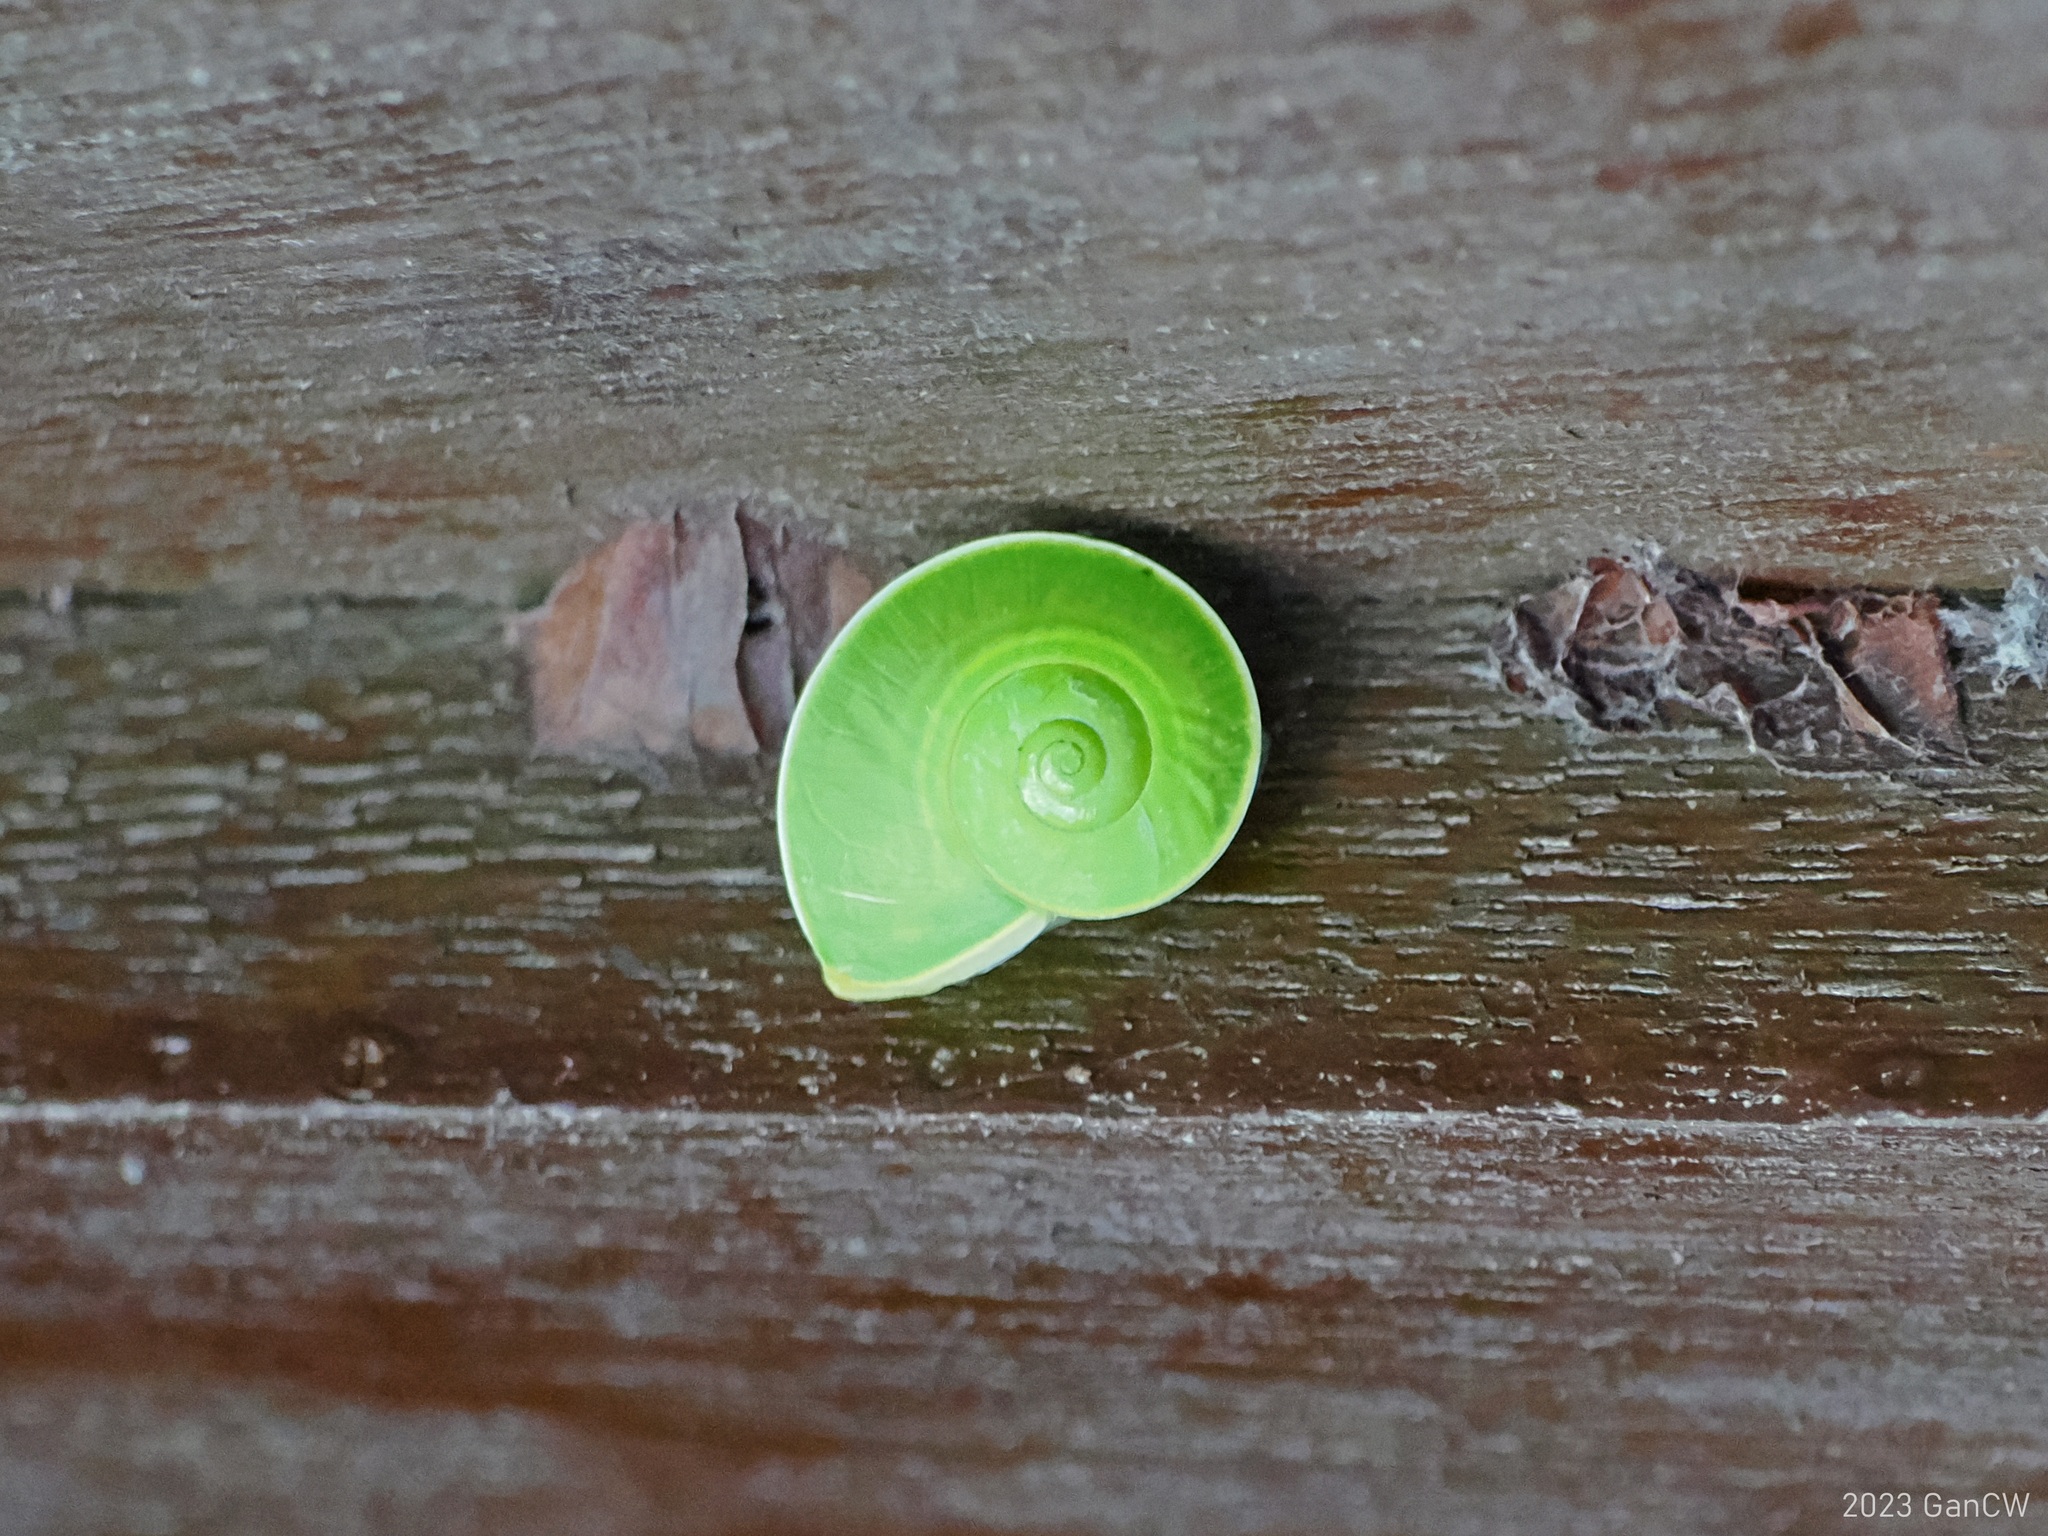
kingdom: Animalia
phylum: Mollusca
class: Gastropoda
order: Stylommatophora
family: Dyakiidae
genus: Rhinocochlis
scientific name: Rhinocochlis
